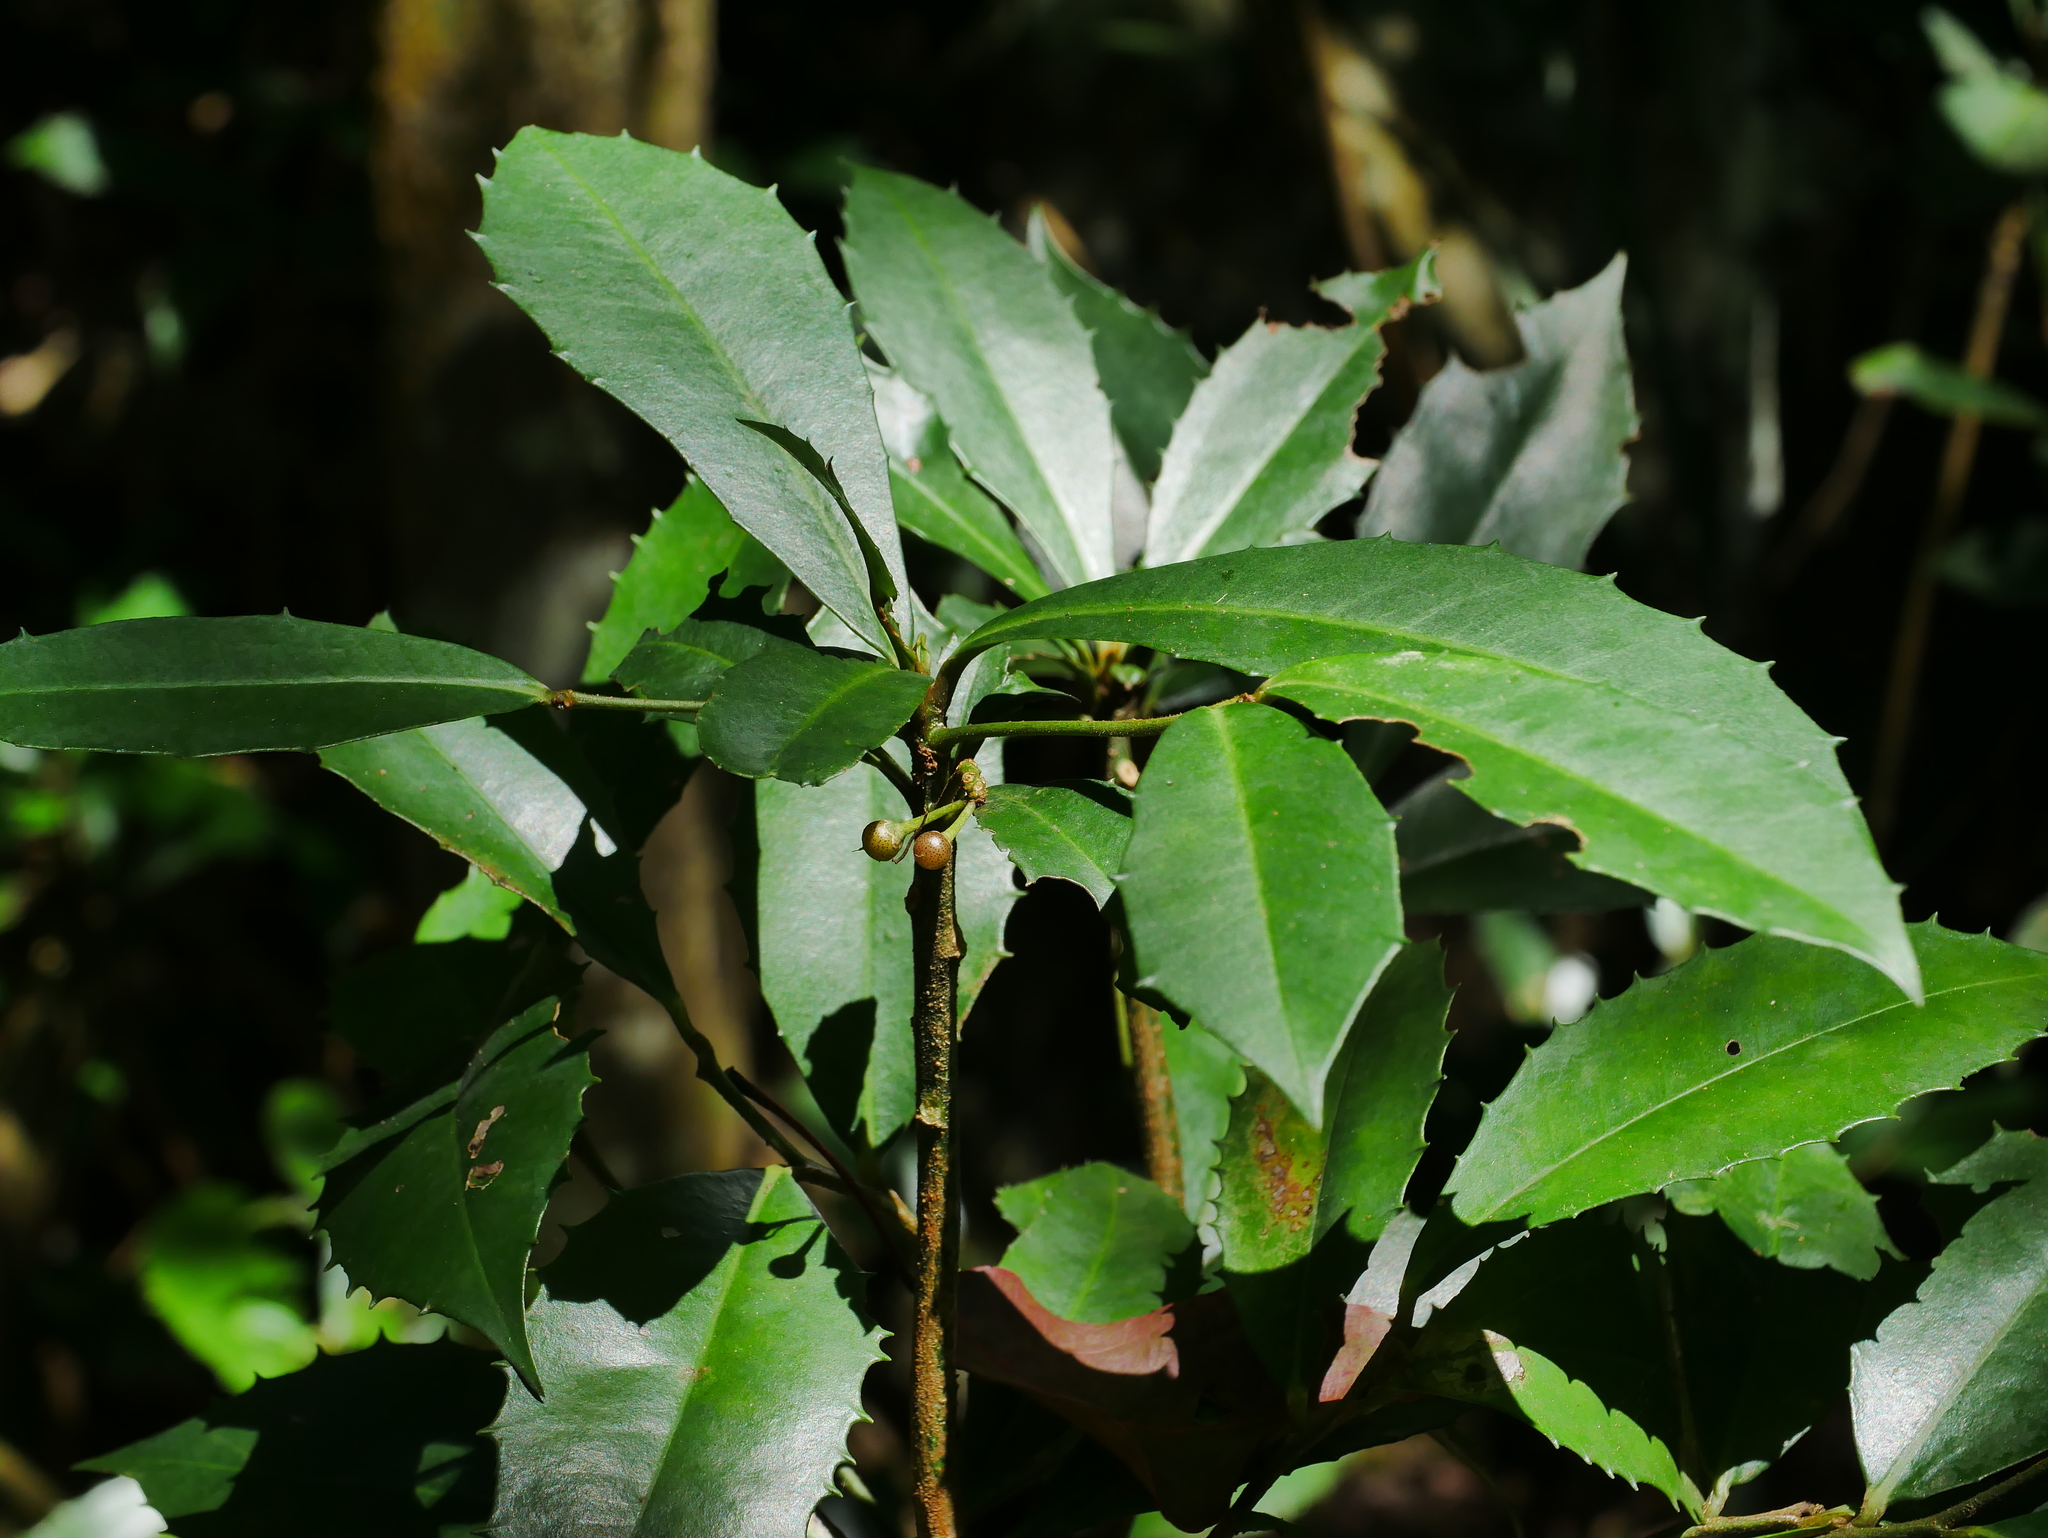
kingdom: Plantae
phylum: Tracheophyta
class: Magnoliopsida
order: Ericales
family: Primulaceae
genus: Ardisia
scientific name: Ardisia cornudentata
